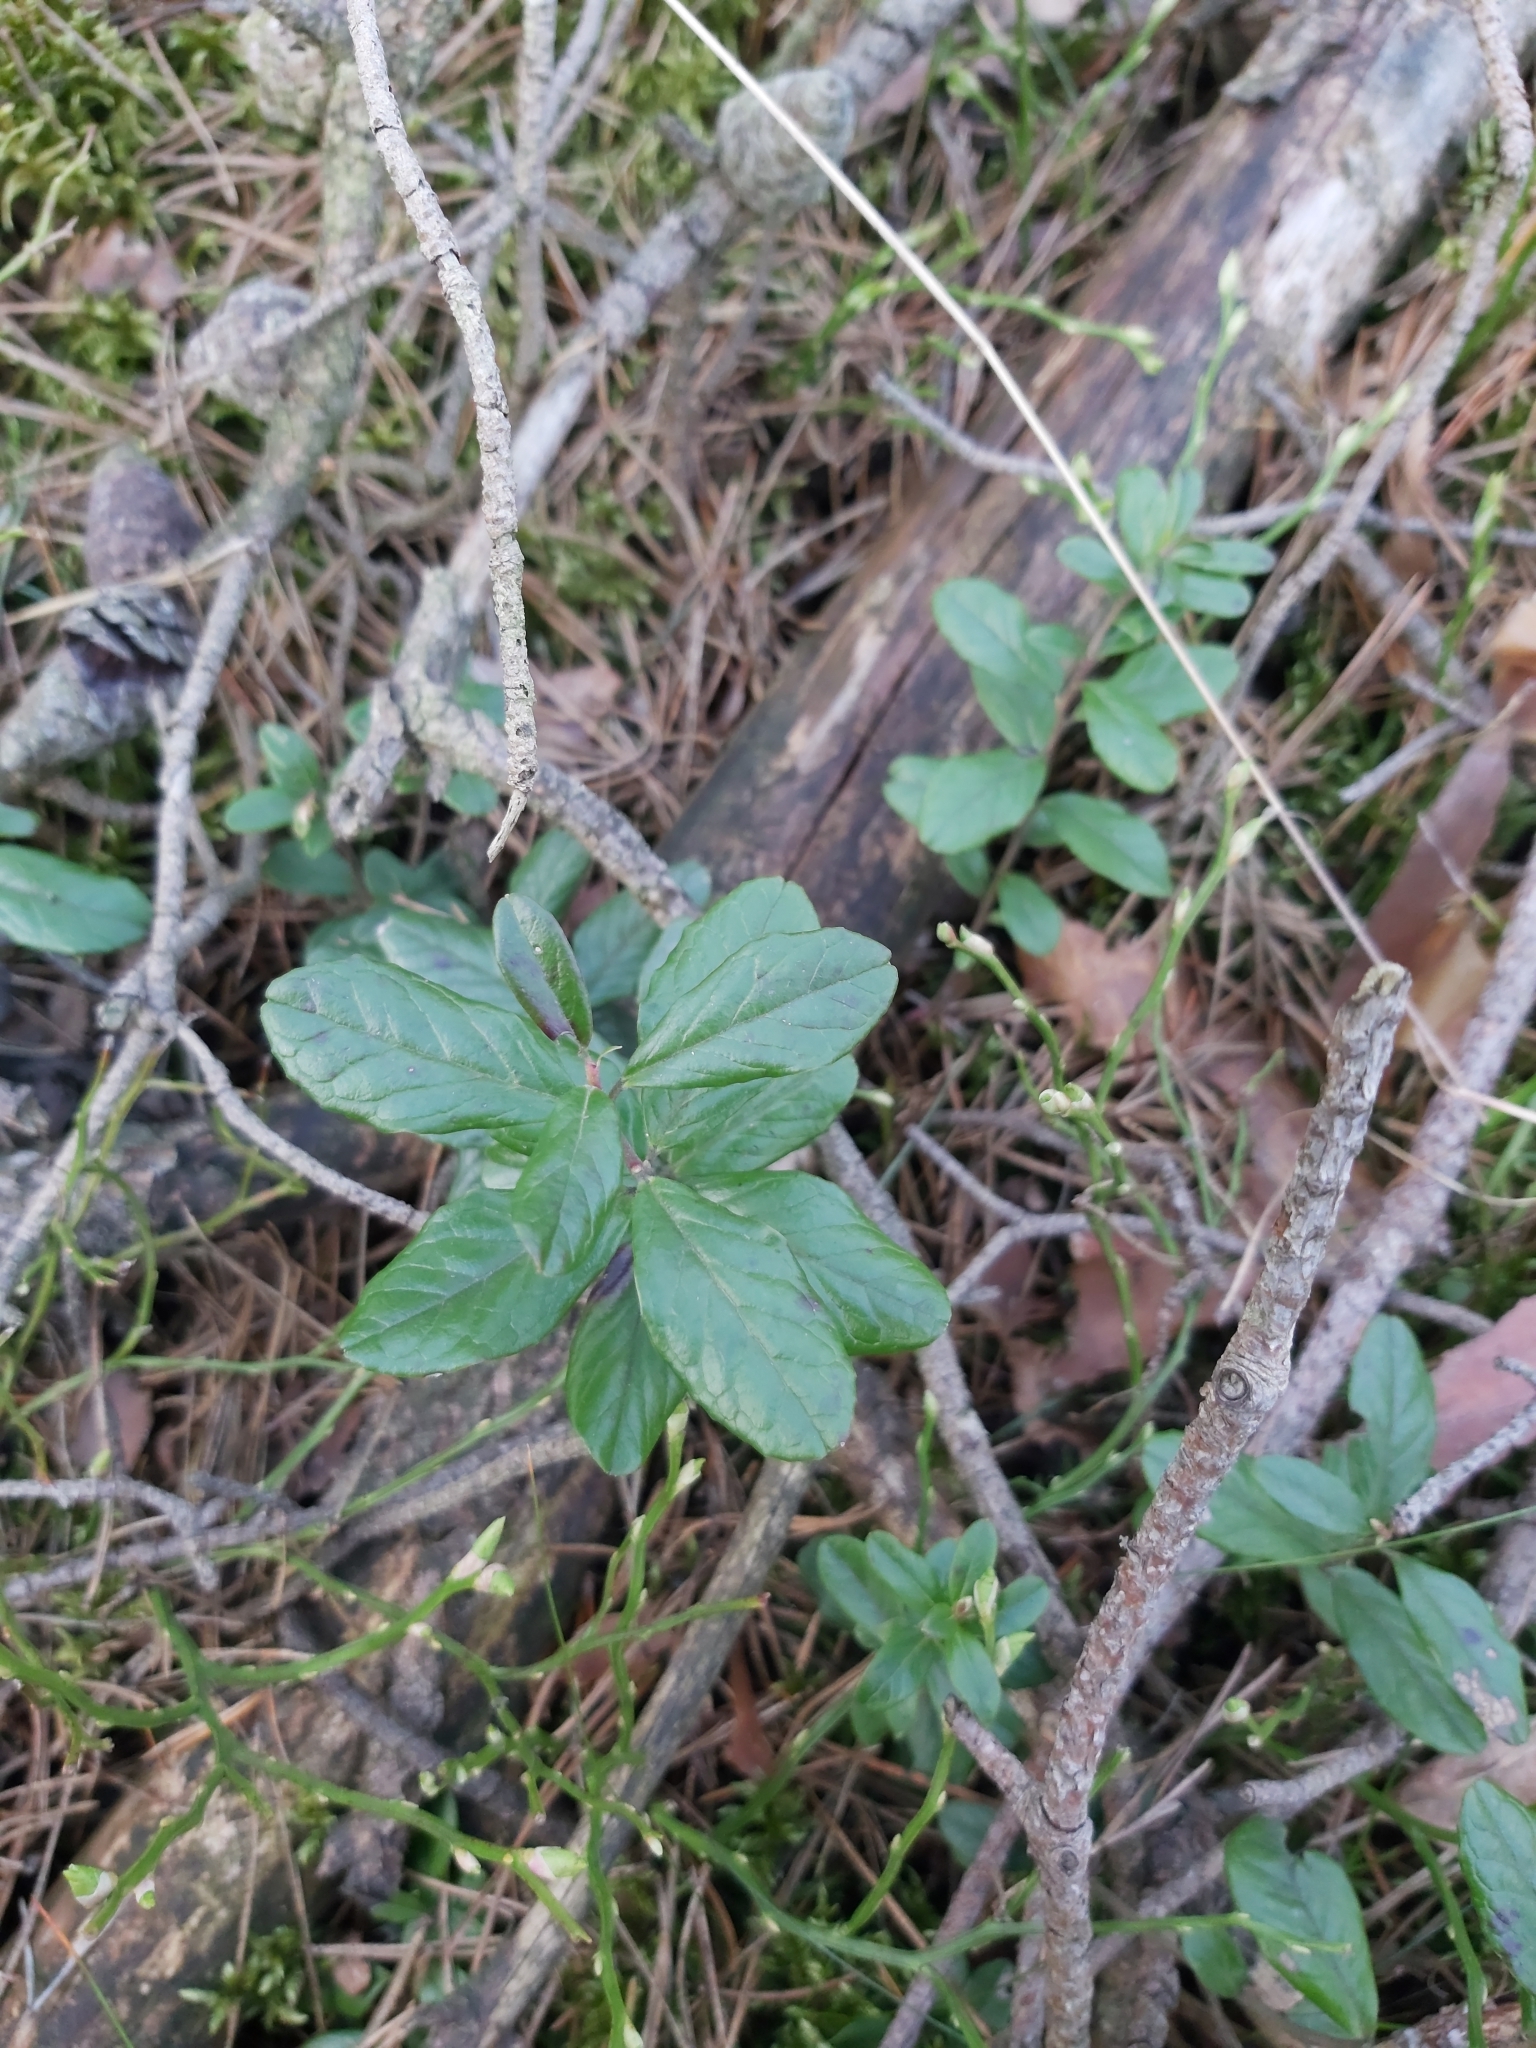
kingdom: Plantae
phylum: Tracheophyta
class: Magnoliopsida
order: Ericales
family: Ericaceae
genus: Vaccinium
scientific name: Vaccinium vitis-idaea
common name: Cowberry
